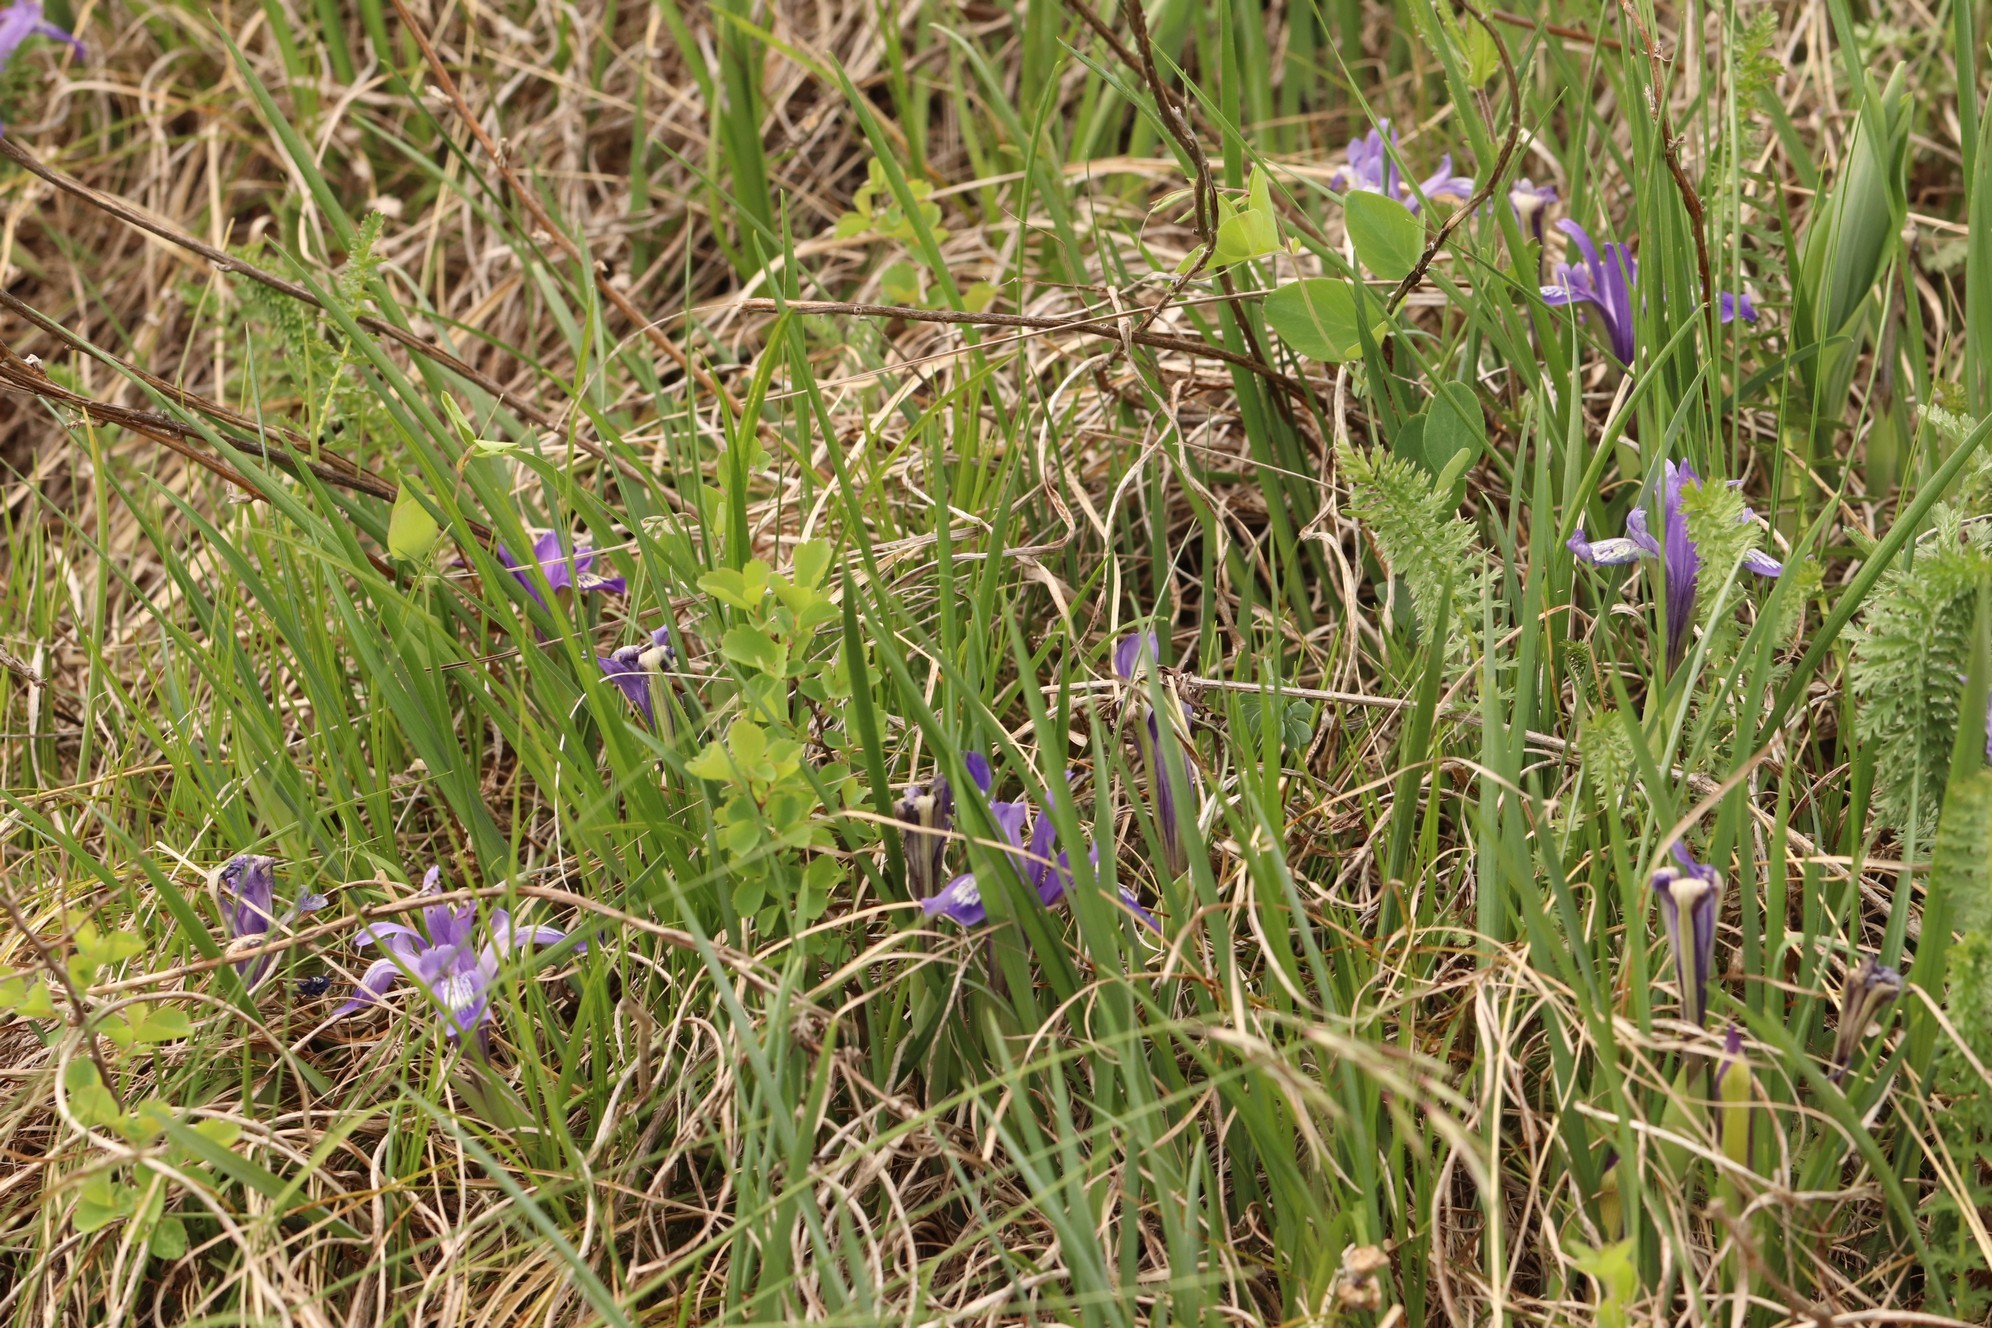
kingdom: Plantae
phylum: Tracheophyta
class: Liliopsida
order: Asparagales
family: Iridaceae
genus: Iris
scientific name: Iris ruthenica
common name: Purple-bract iris
